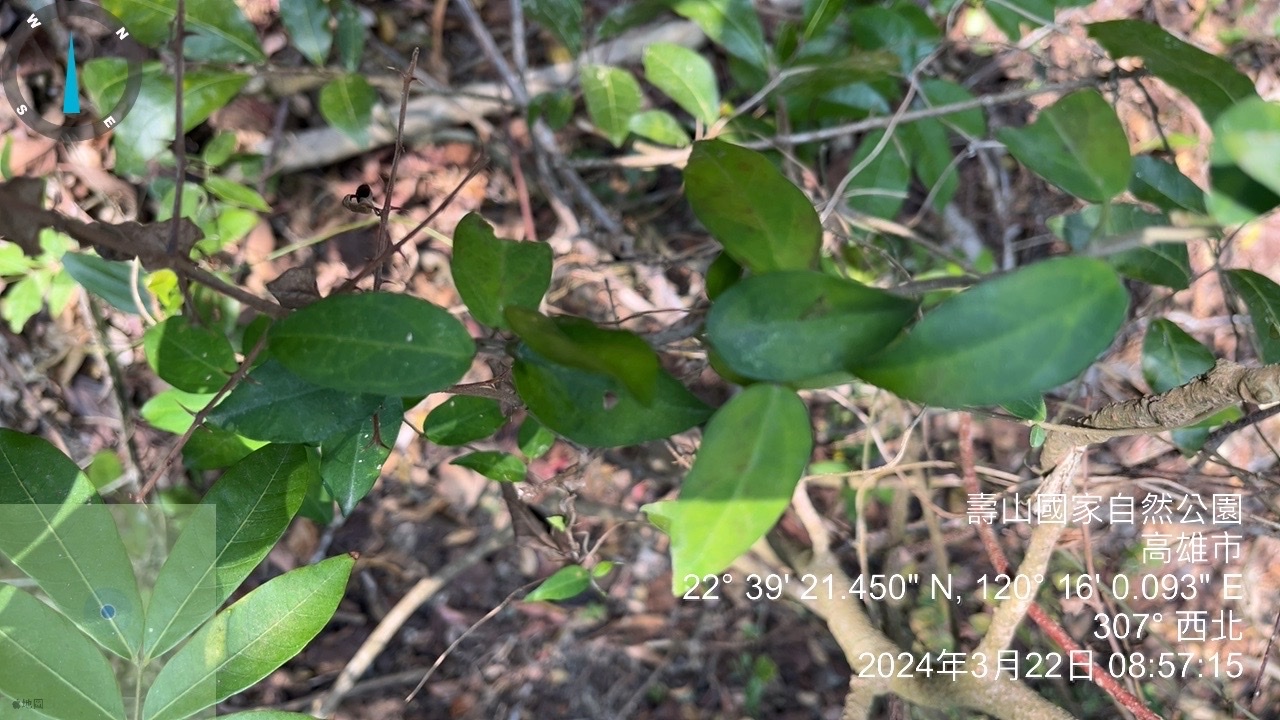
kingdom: Plantae
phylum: Tracheophyta
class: Magnoliopsida
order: Malpighiales
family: Salicaceae
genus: Scolopia
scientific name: Scolopia oldhamii
